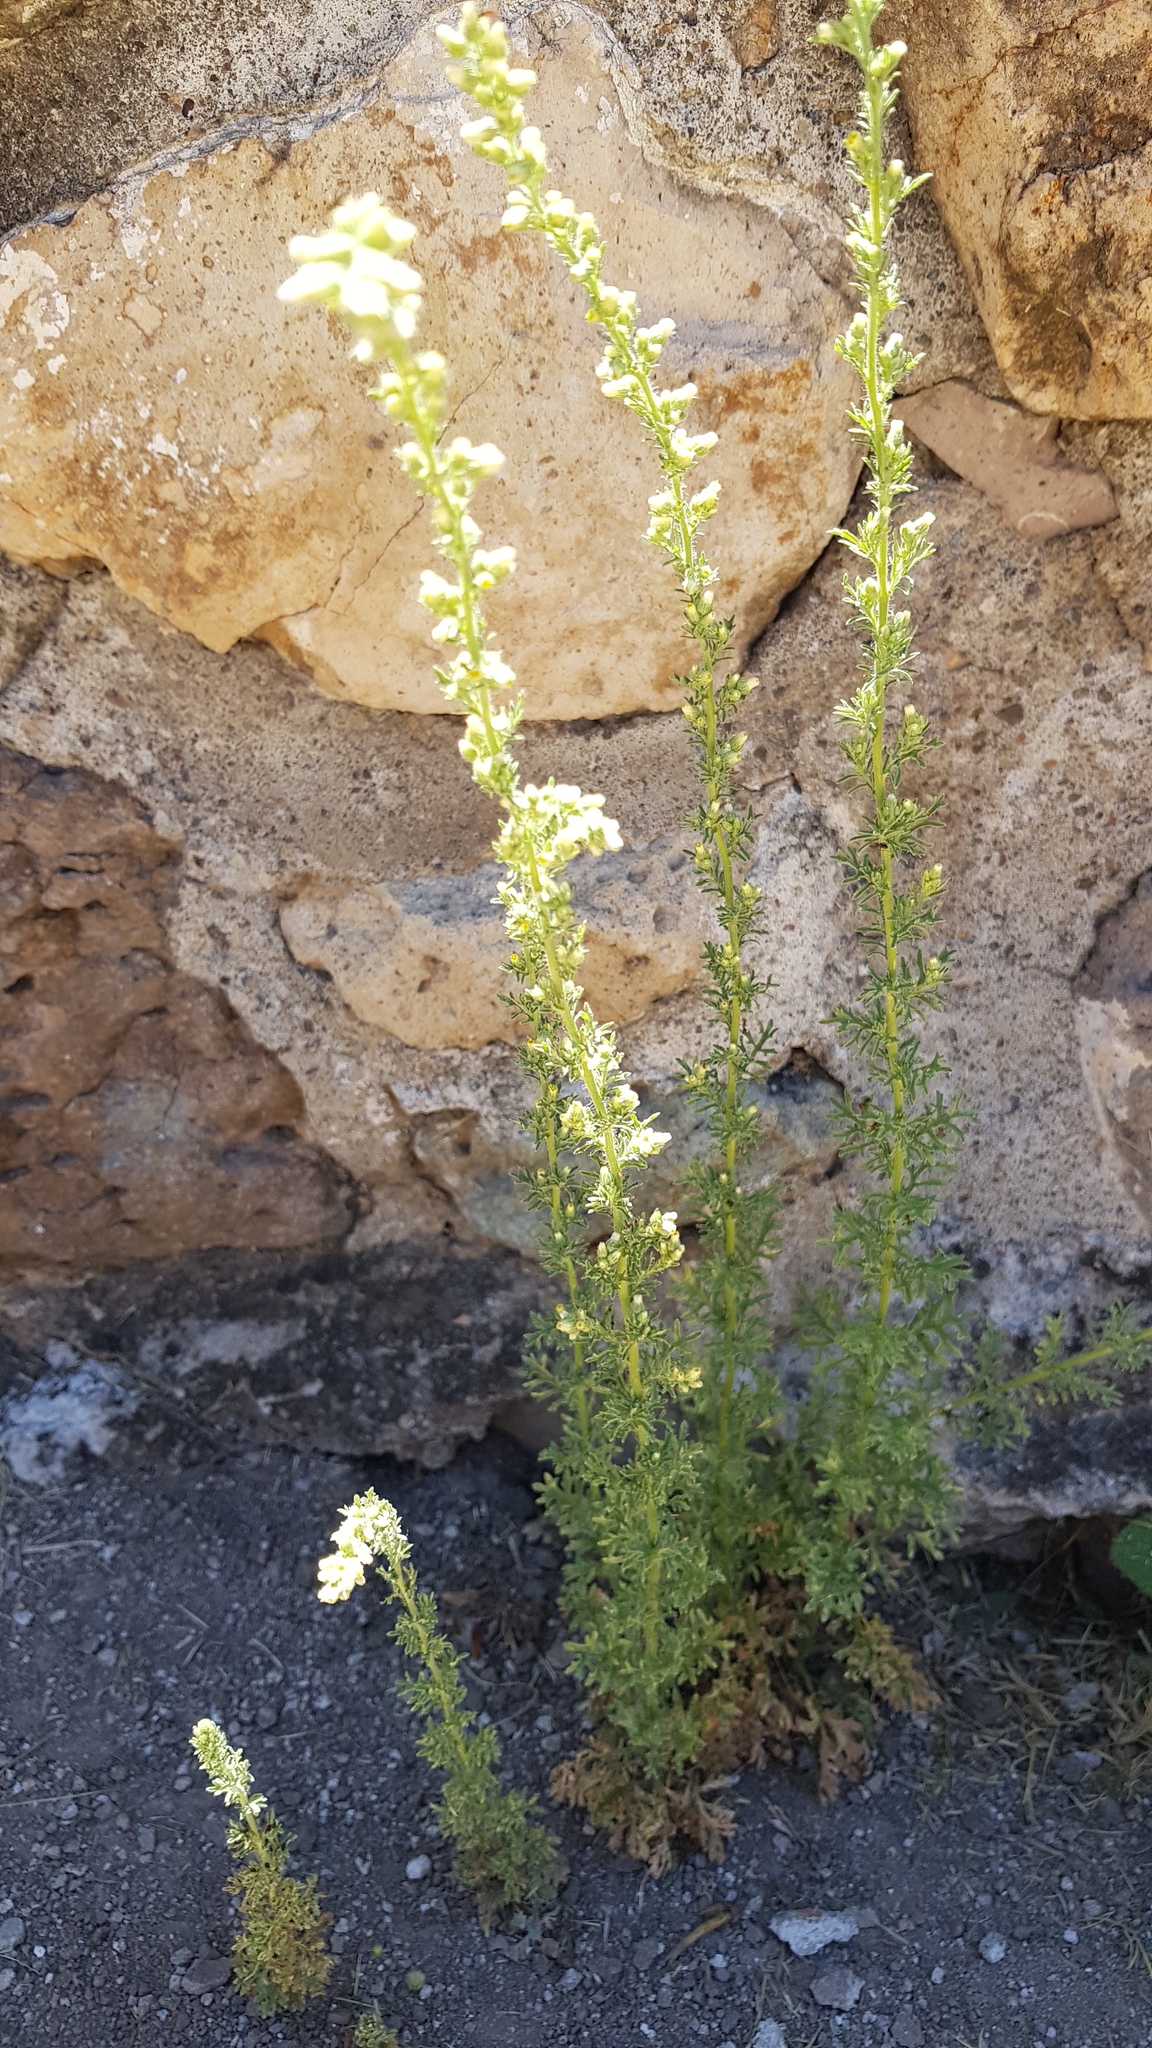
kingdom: Plantae
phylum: Tracheophyta
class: Magnoliopsida
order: Asterales
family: Asteraceae
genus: Laennecia
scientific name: Laennecia sophiifolia
